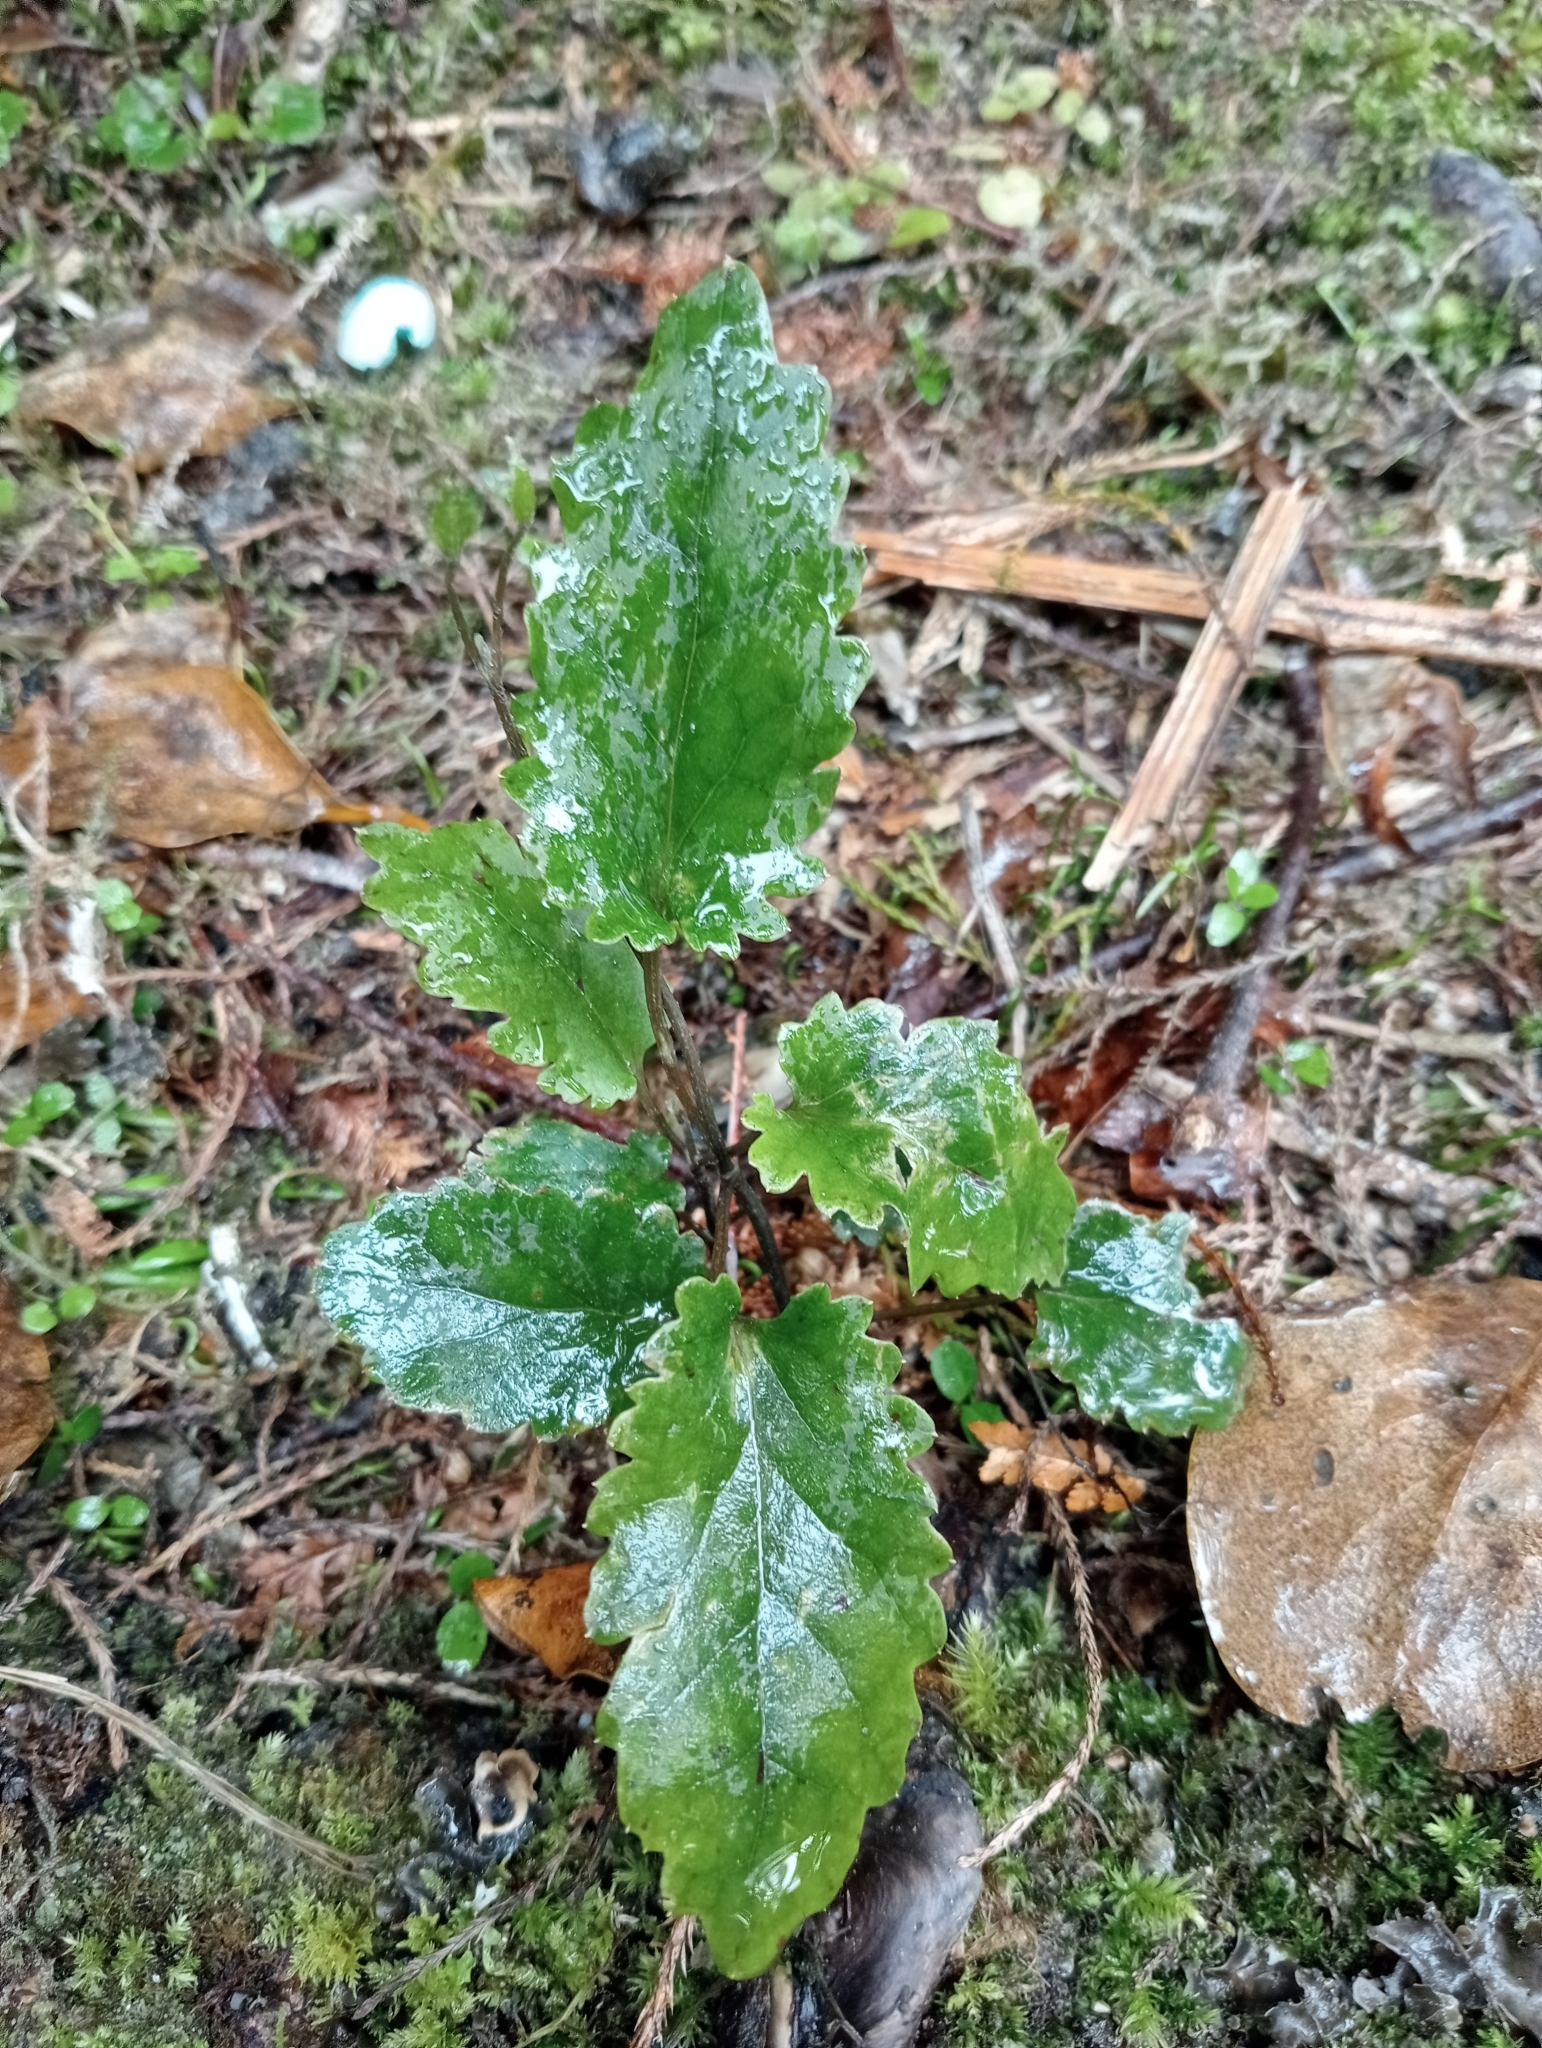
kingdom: Plantae
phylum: Tracheophyta
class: Magnoliopsida
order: Ranunculales
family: Ranunculaceae
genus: Clematis
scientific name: Clematis paniculata
